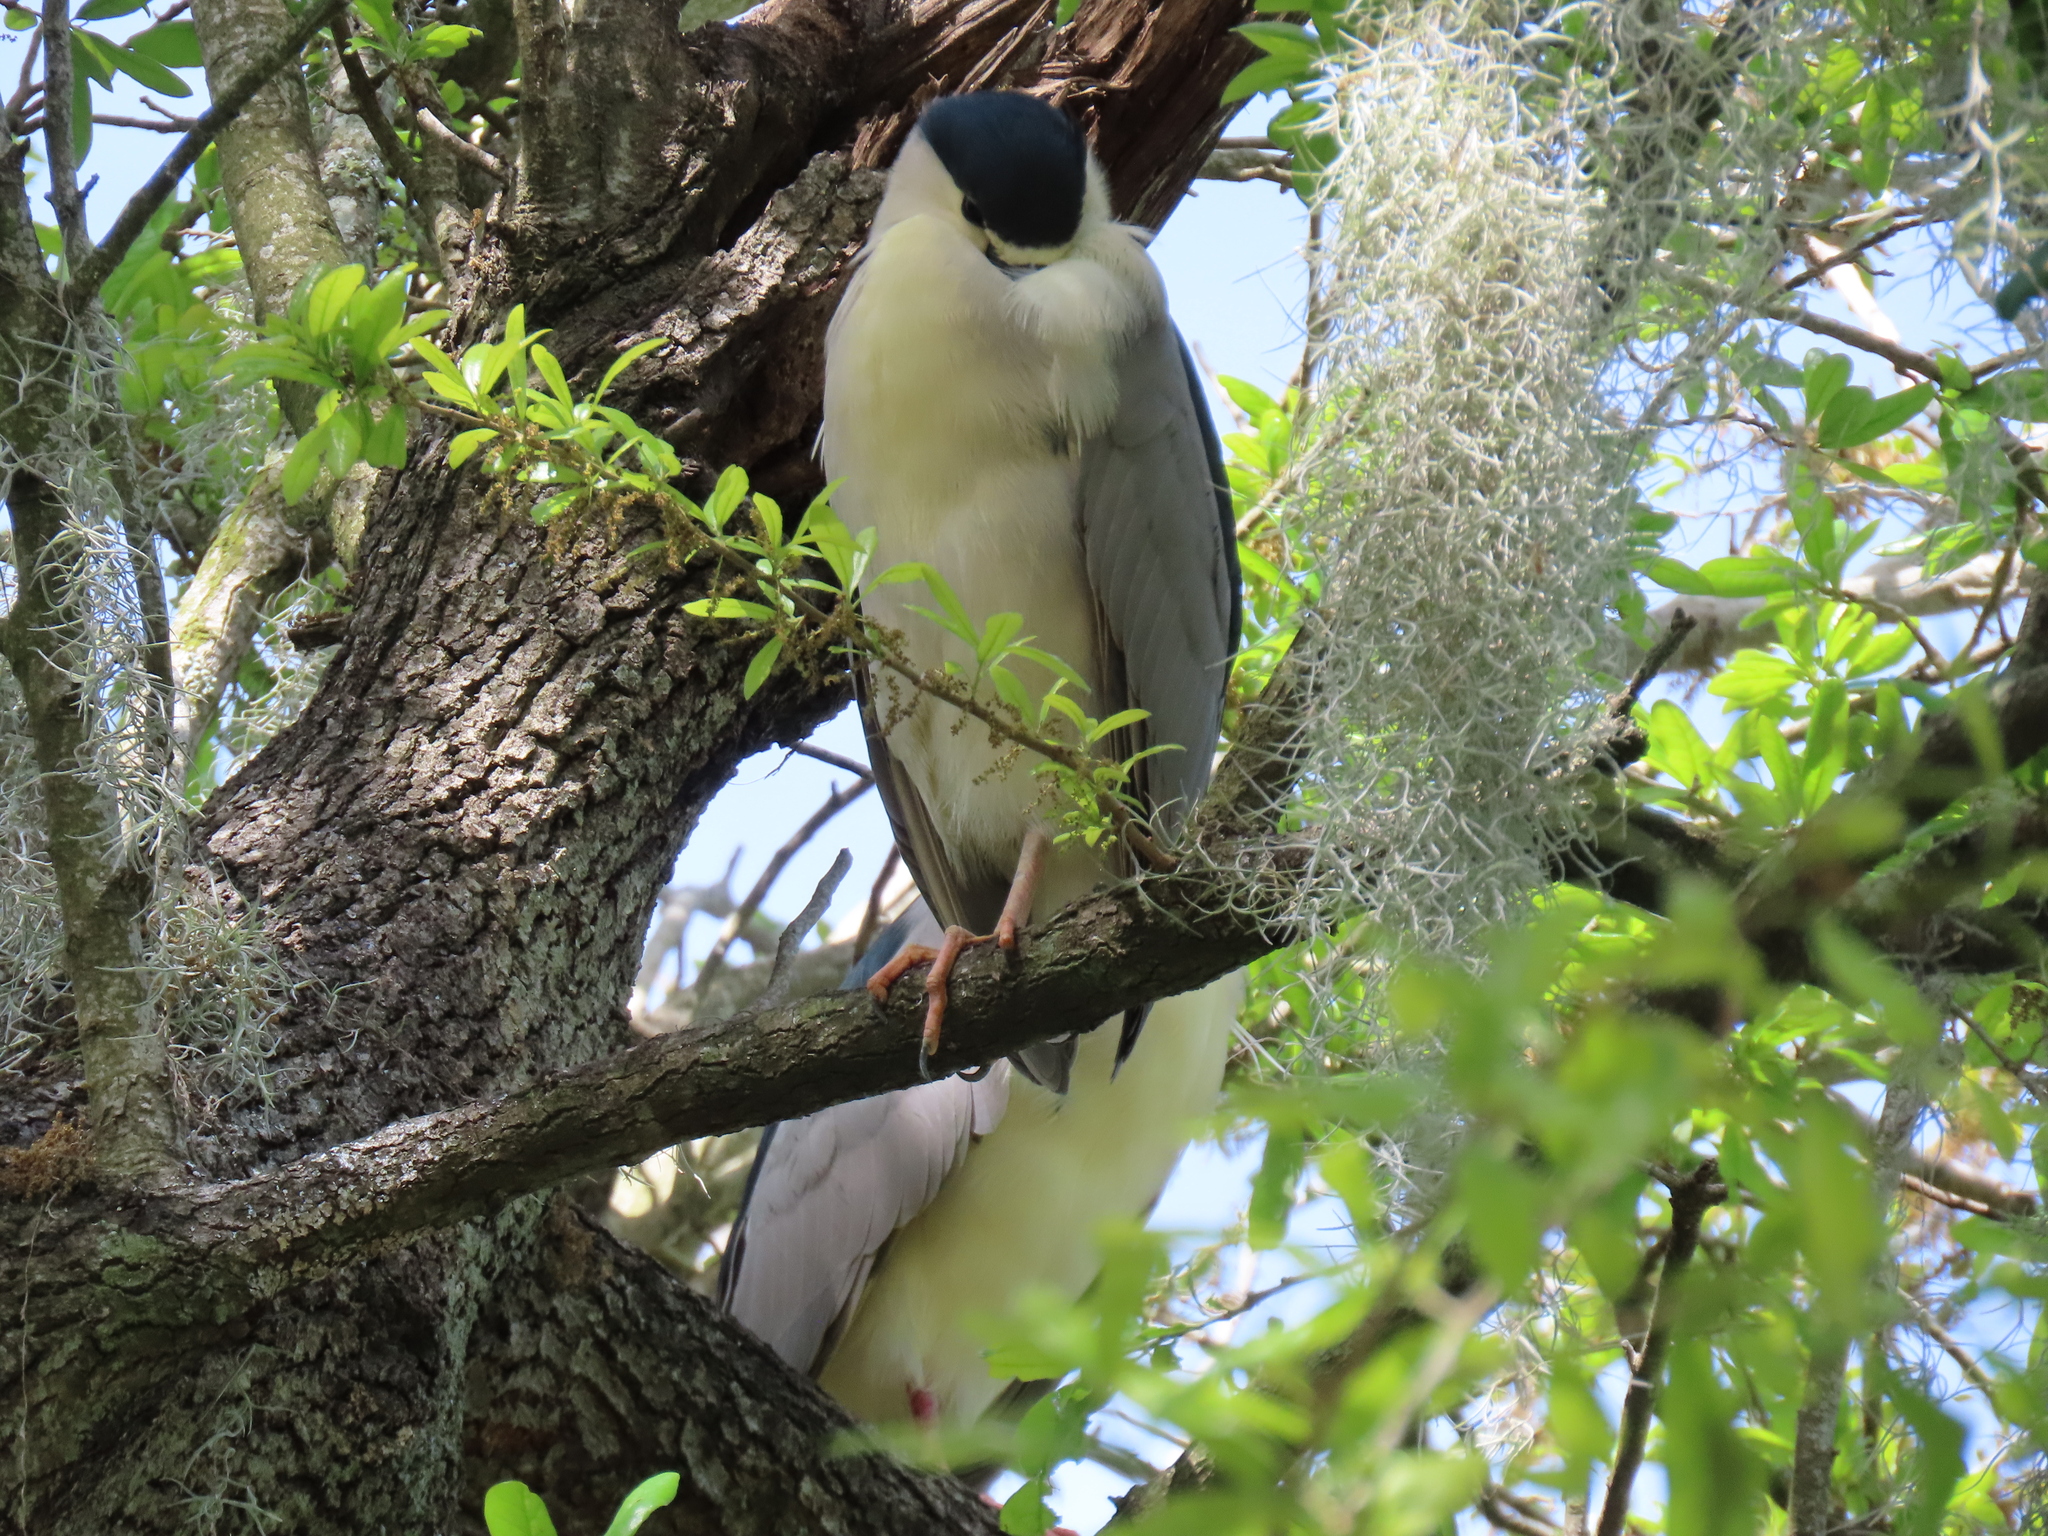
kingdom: Animalia
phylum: Chordata
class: Aves
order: Pelecaniformes
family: Ardeidae
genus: Nycticorax
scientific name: Nycticorax nycticorax
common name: Black-crowned night heron
